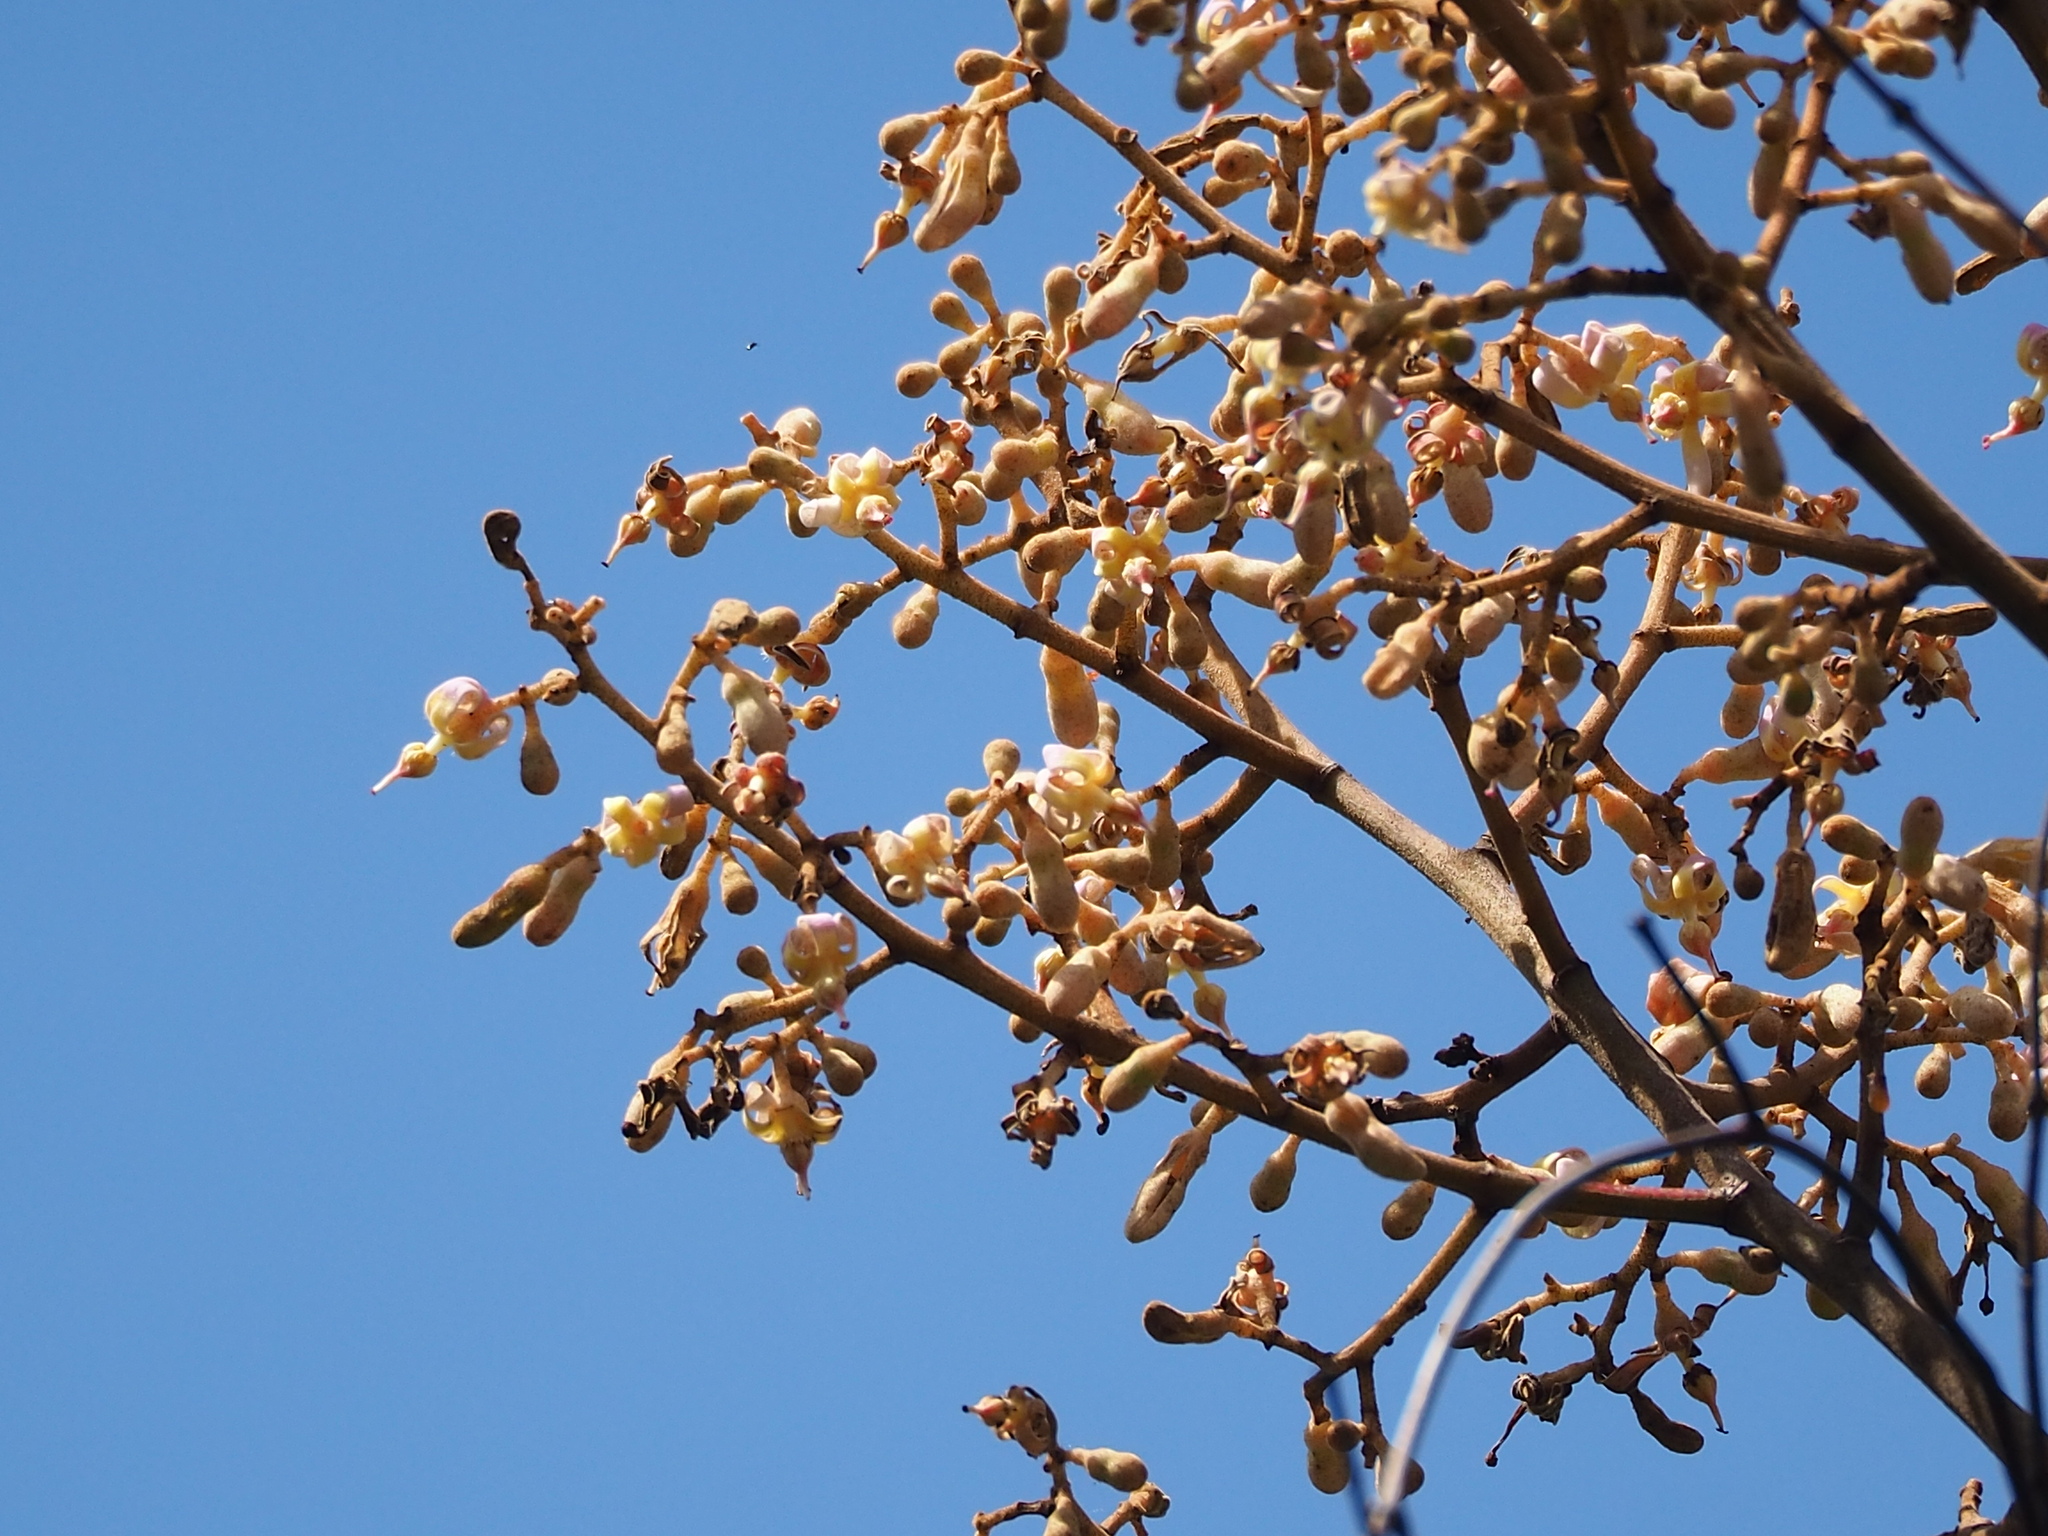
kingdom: Plantae
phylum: Tracheophyta
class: Magnoliopsida
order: Malvales
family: Malvaceae
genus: Firmiana
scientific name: Firmiana simplex
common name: Chinese parasoltree
